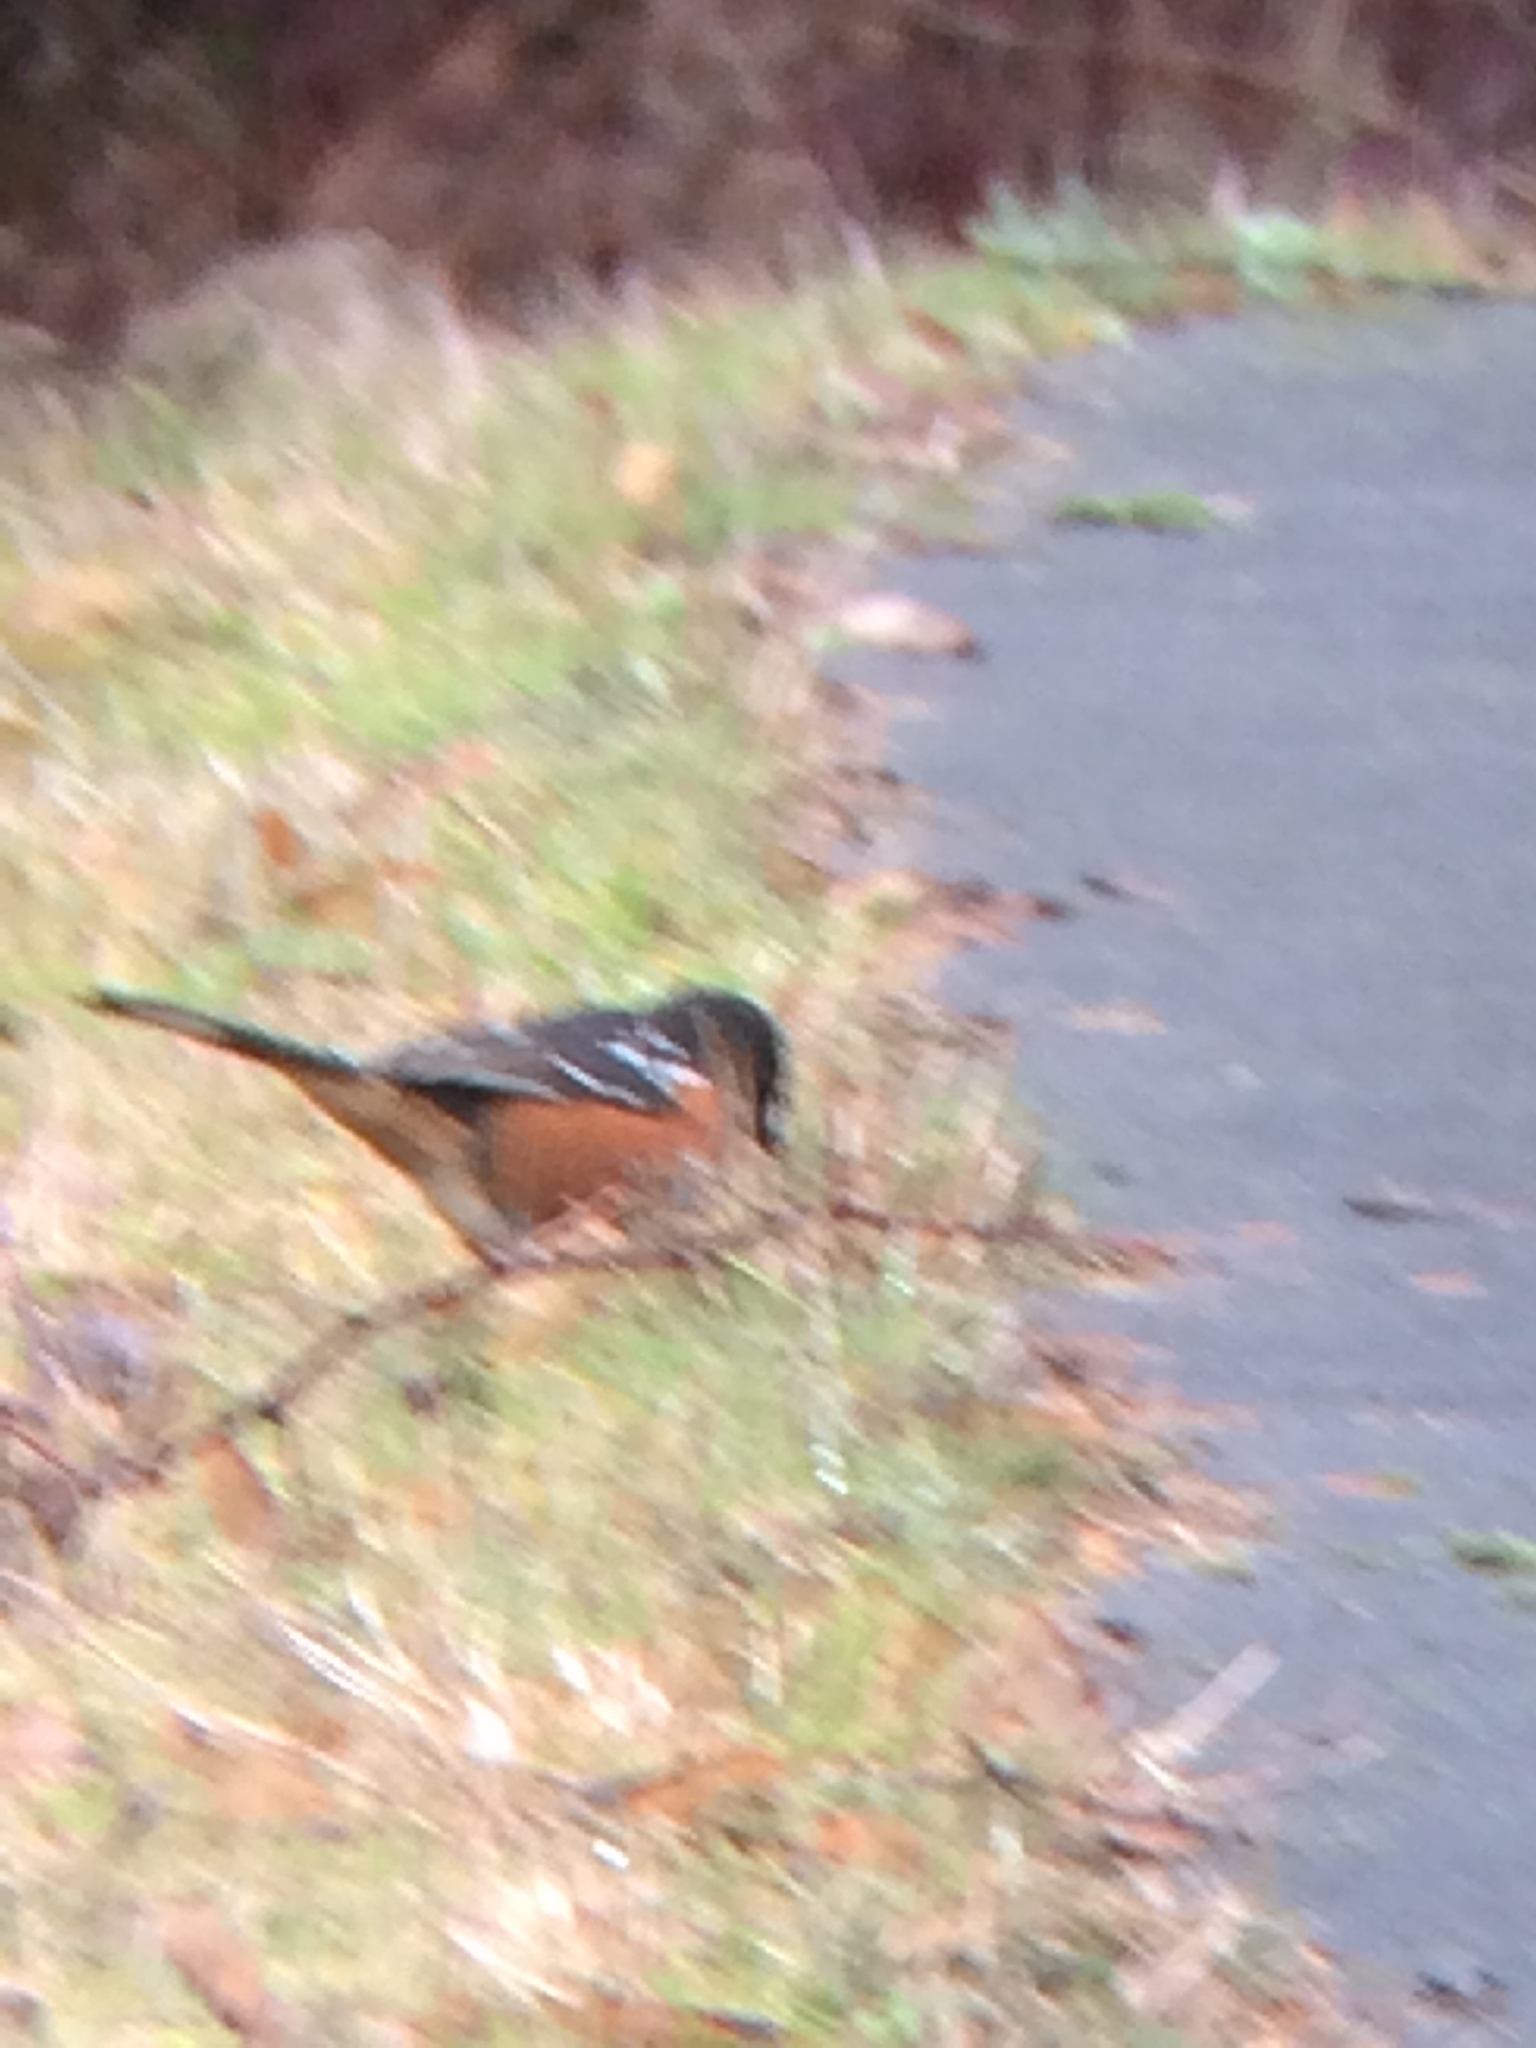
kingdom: Animalia
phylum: Chordata
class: Aves
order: Passeriformes
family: Passerellidae
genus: Pipilo
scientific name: Pipilo maculatus
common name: Spotted towhee
